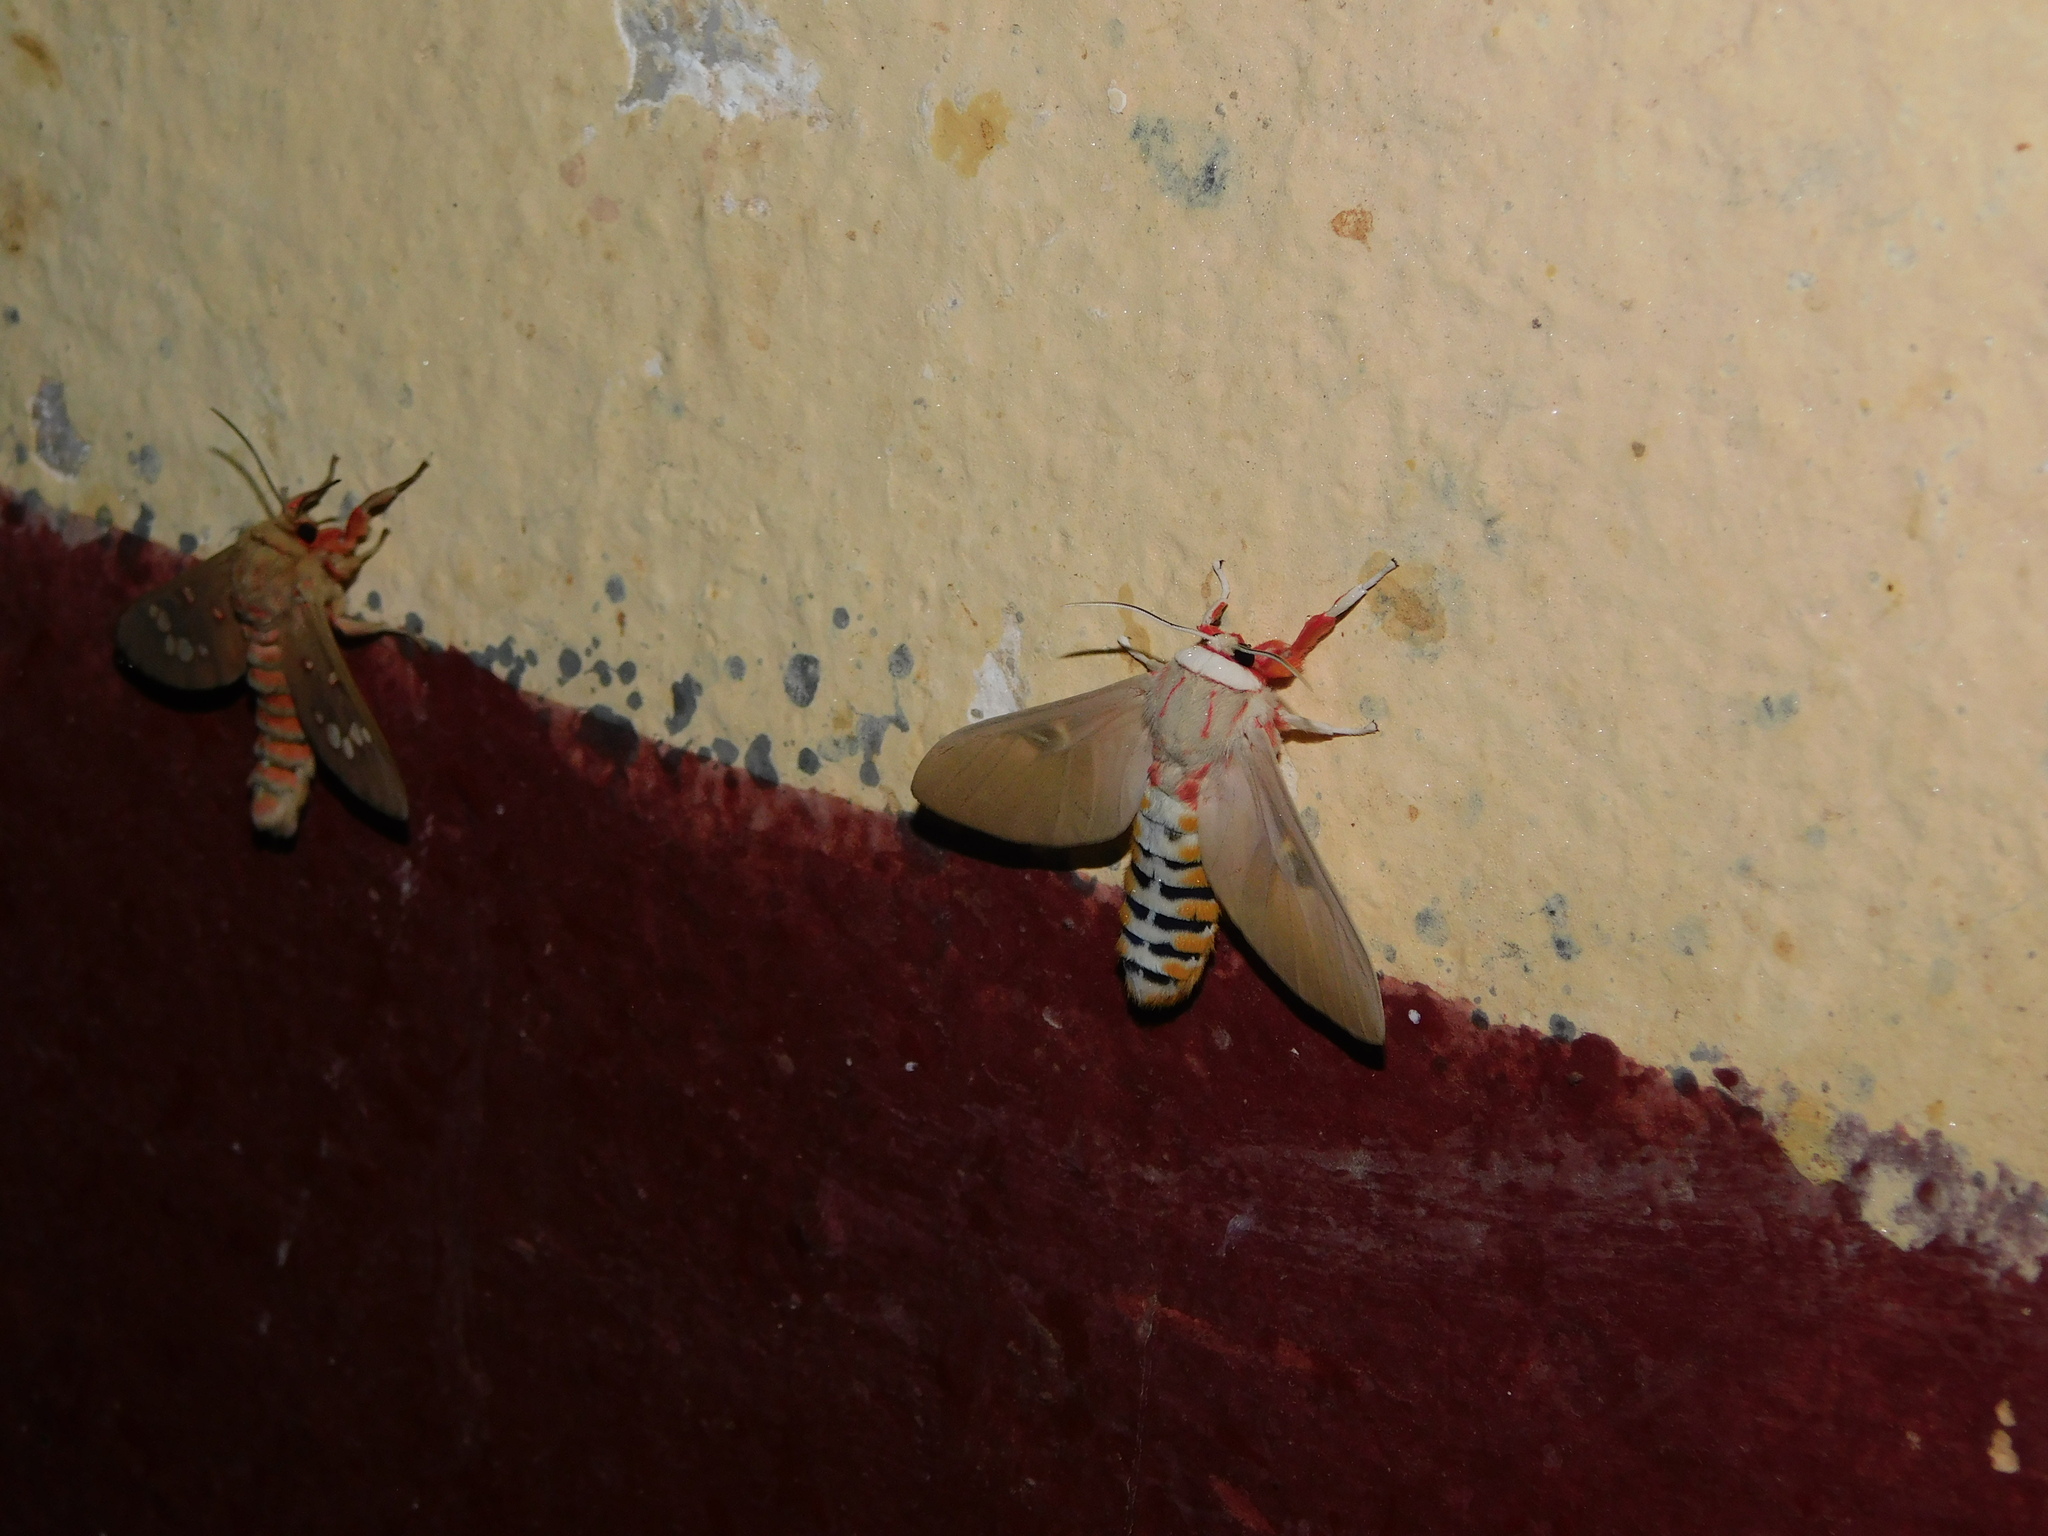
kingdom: Animalia
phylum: Arthropoda
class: Insecta
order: Lepidoptera
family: Erebidae
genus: Balacra
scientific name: Balacra herona
